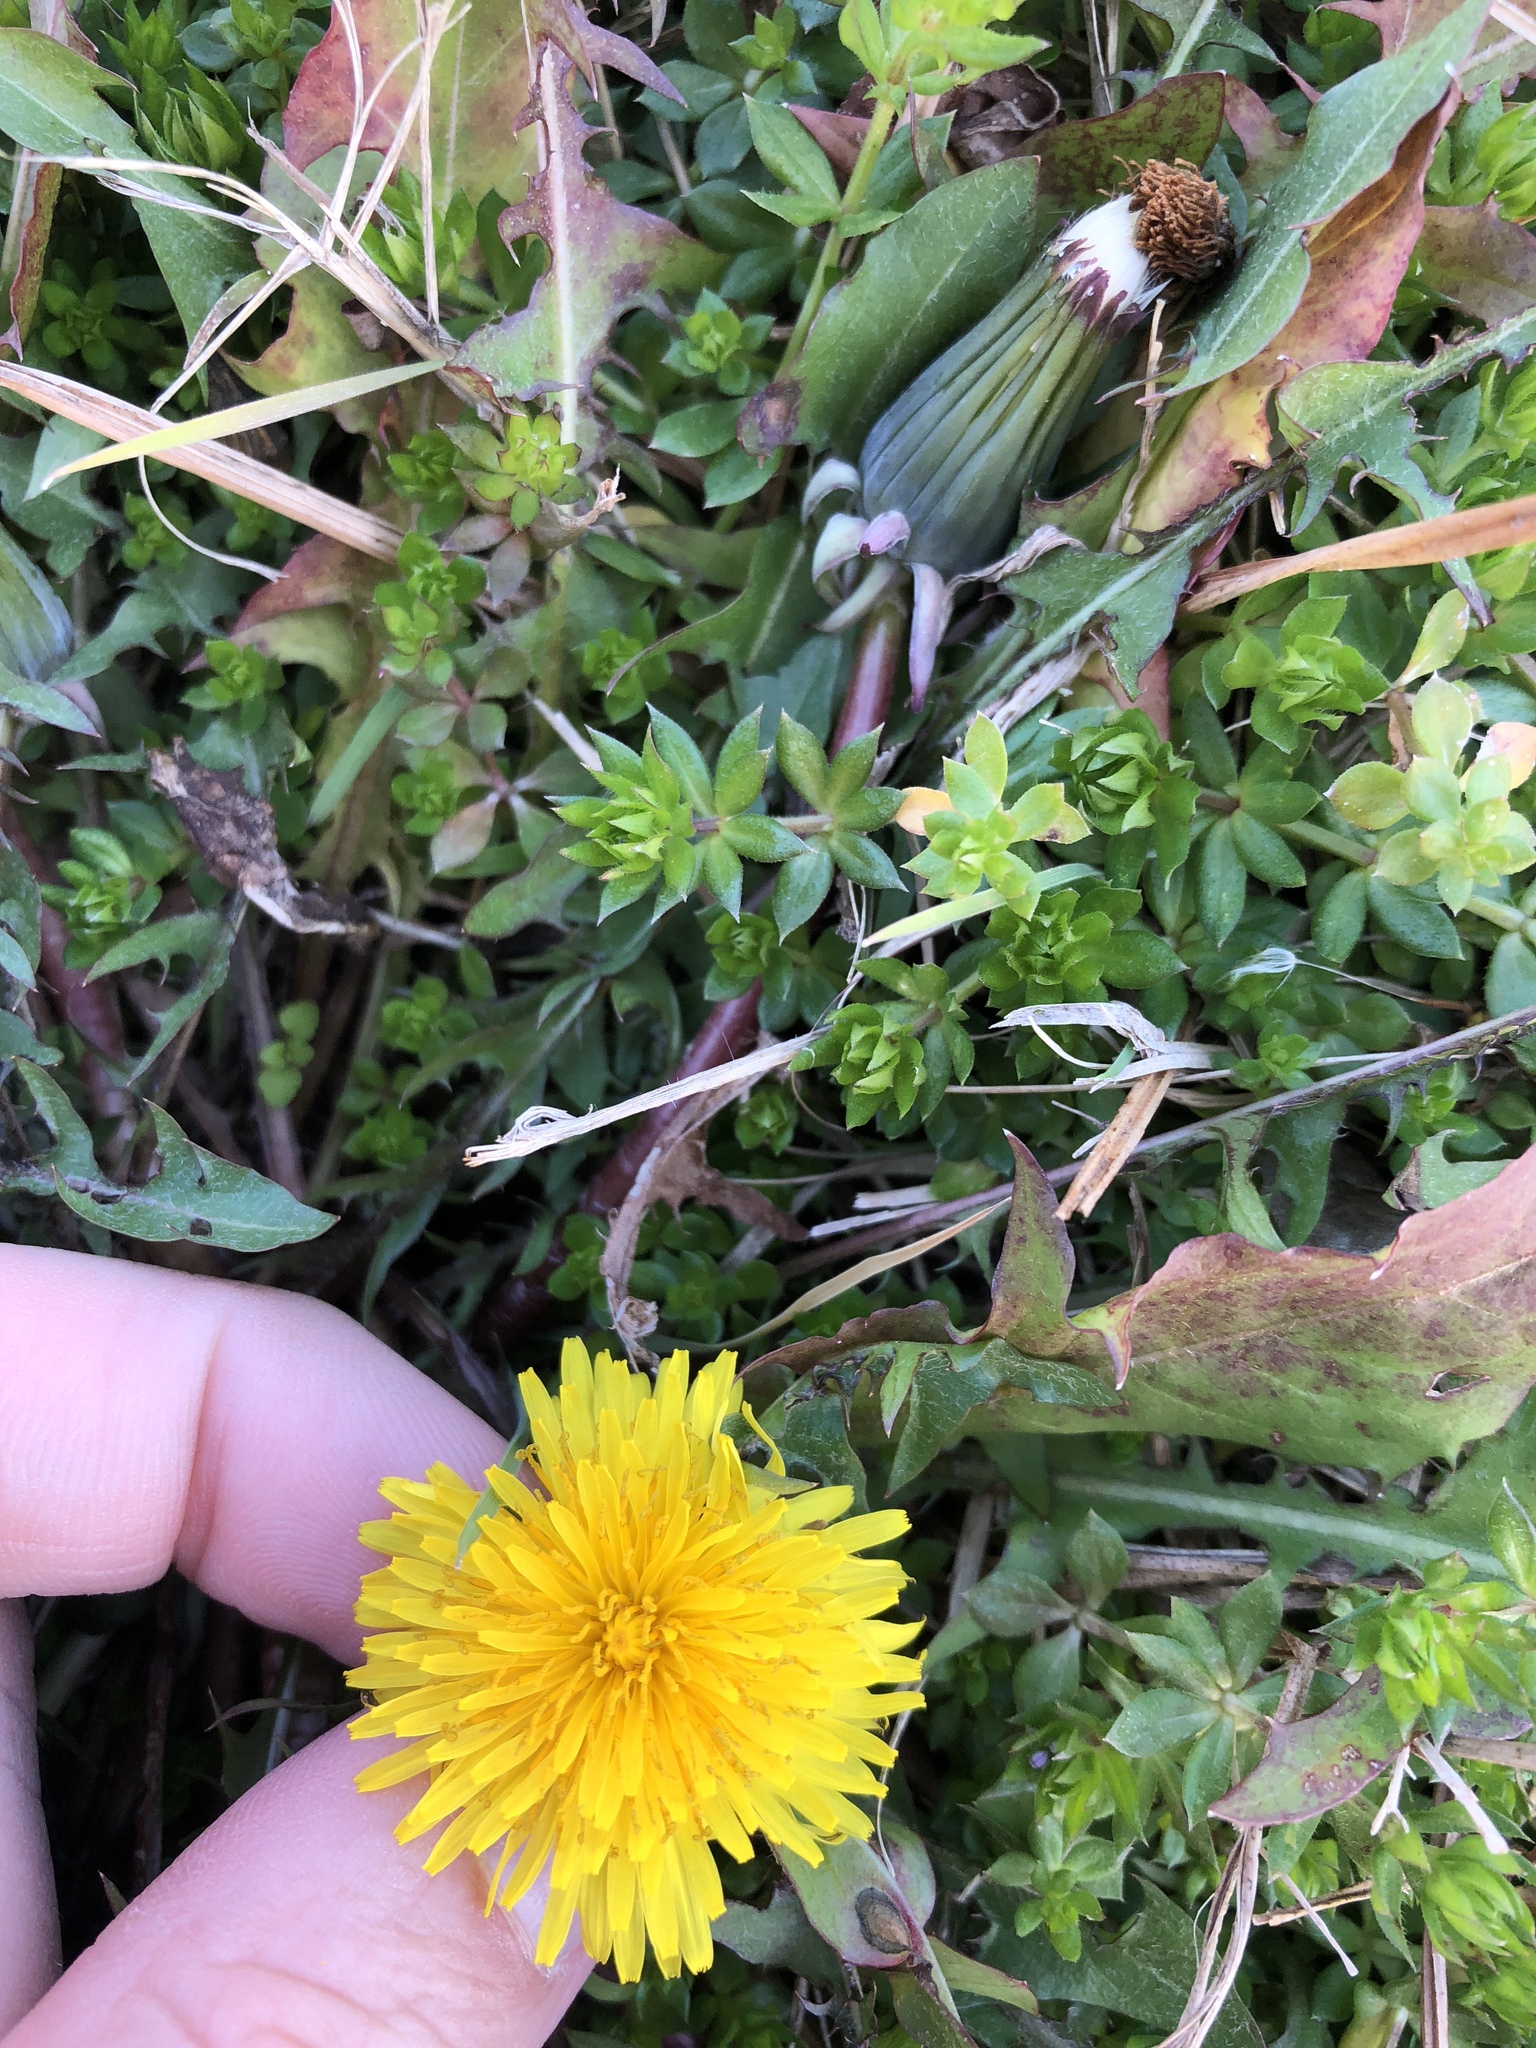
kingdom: Plantae
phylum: Tracheophyta
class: Magnoliopsida
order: Asterales
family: Asteraceae
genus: Taraxacum
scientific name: Taraxacum officinale
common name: Common dandelion
